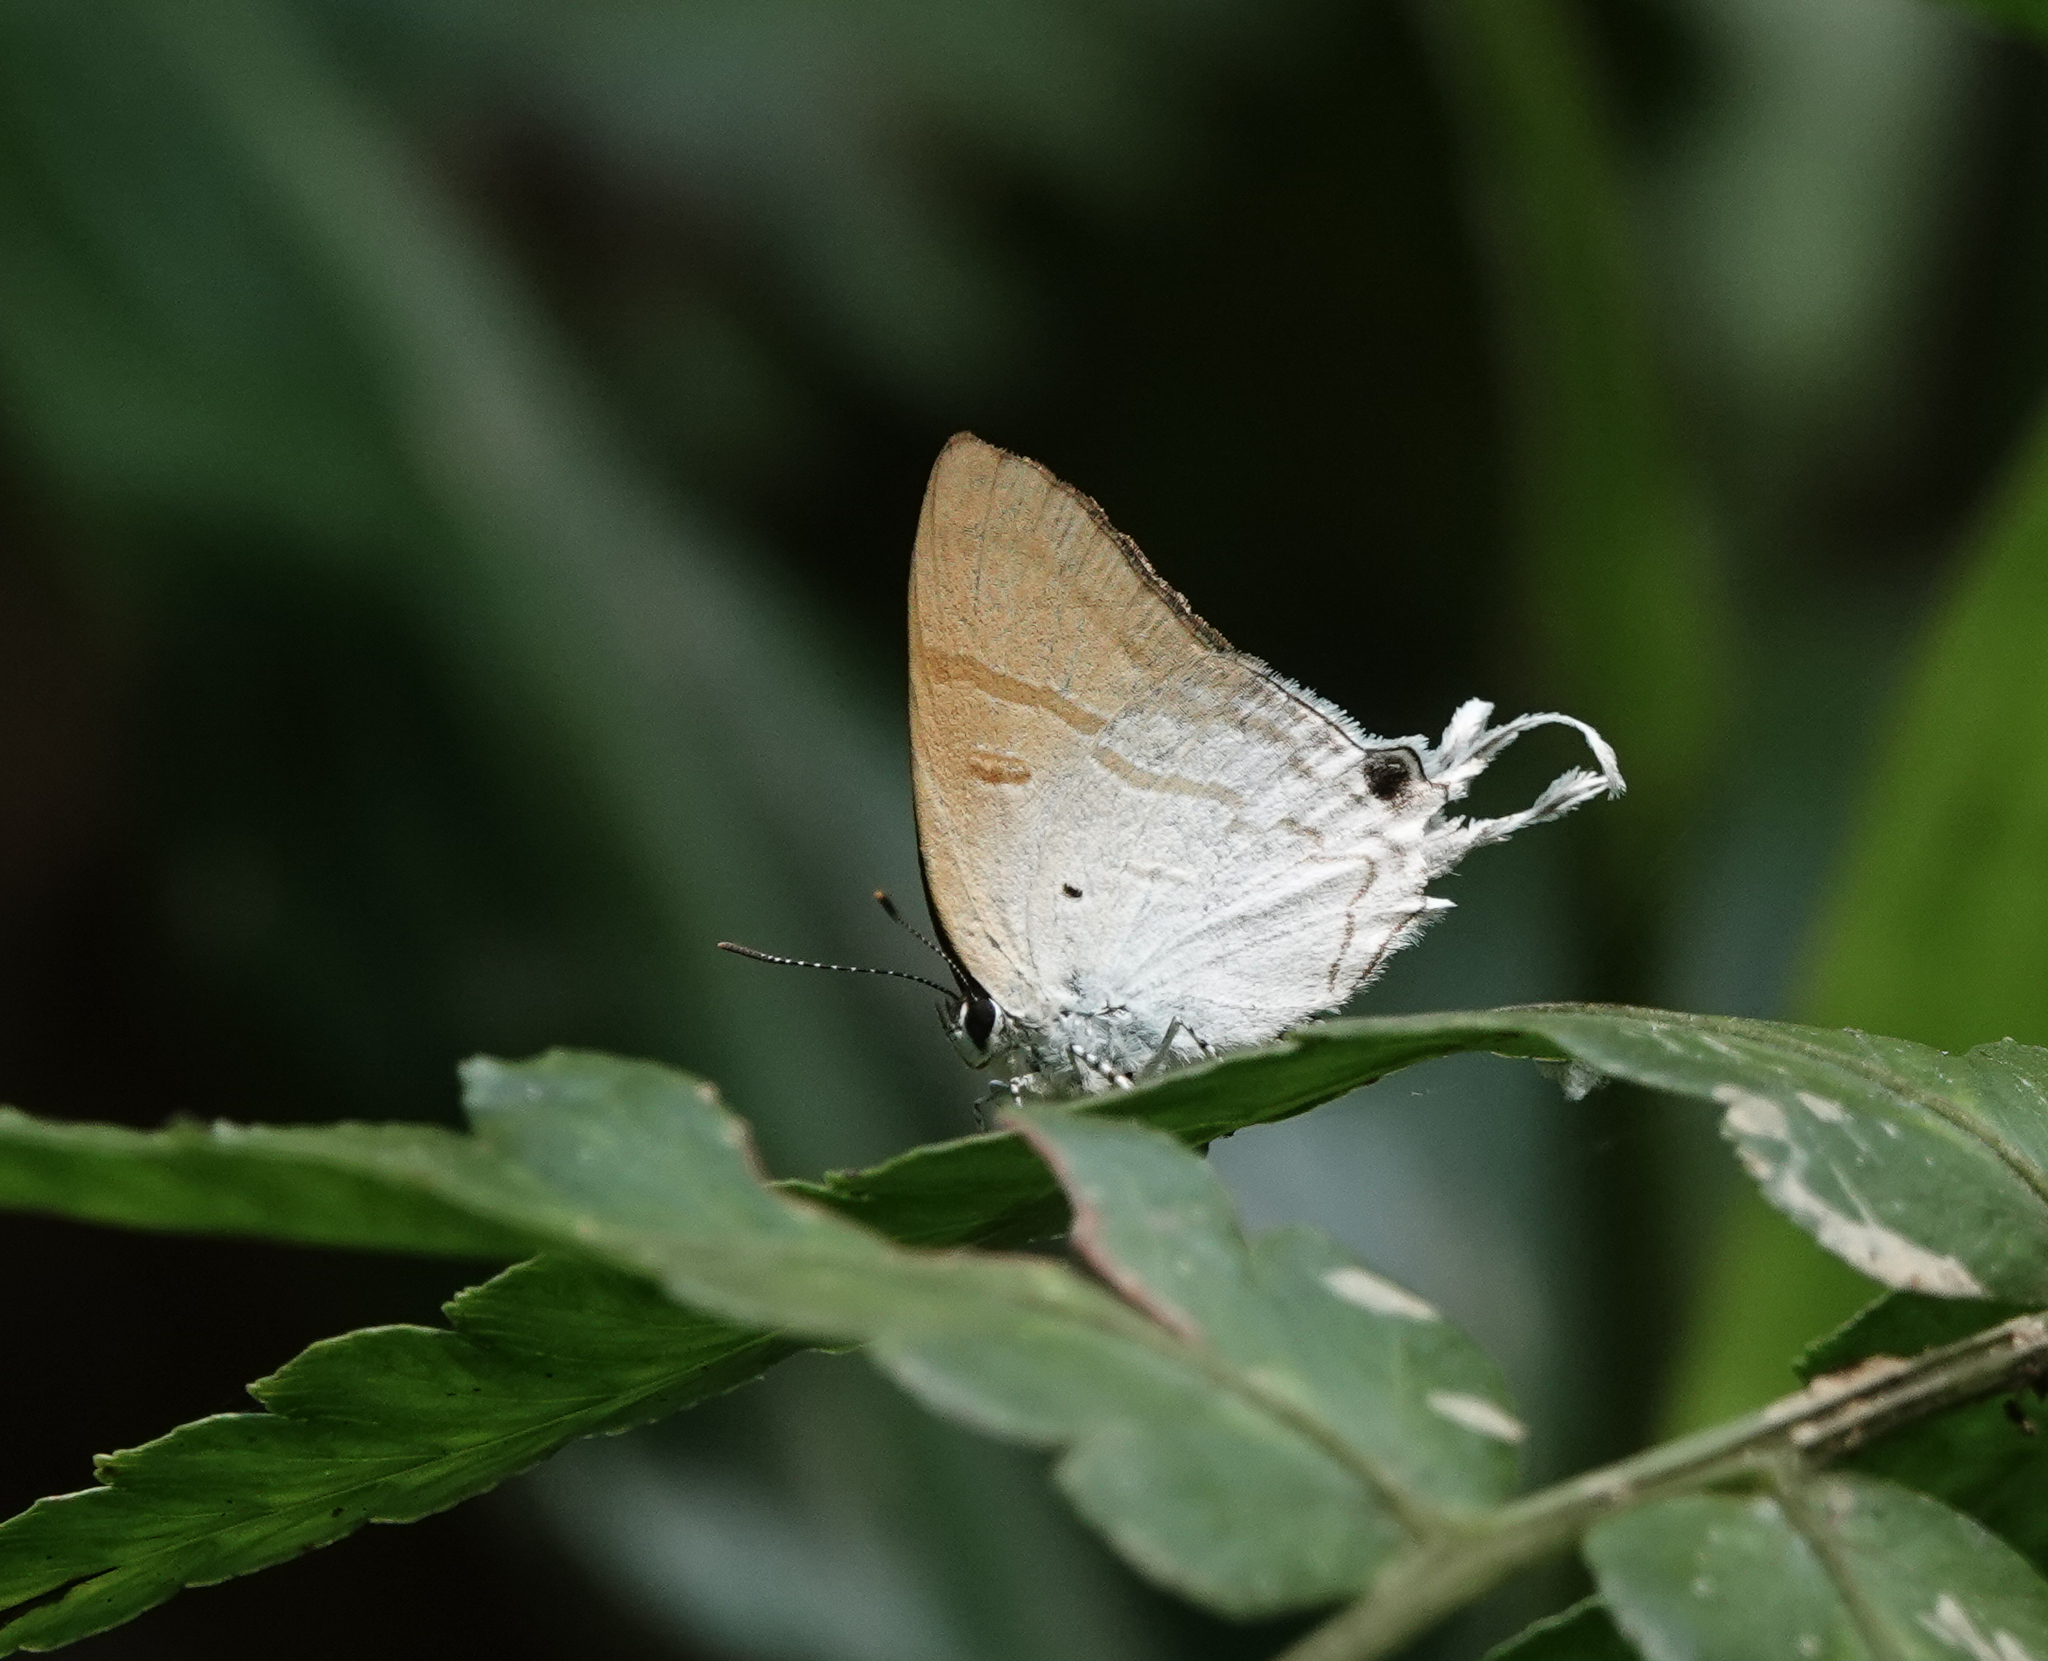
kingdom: Animalia
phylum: Arthropoda
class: Insecta
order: Lepidoptera
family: Lycaenidae
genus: Zeltus
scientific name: Zeltus amasa
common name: Fluffy tit
